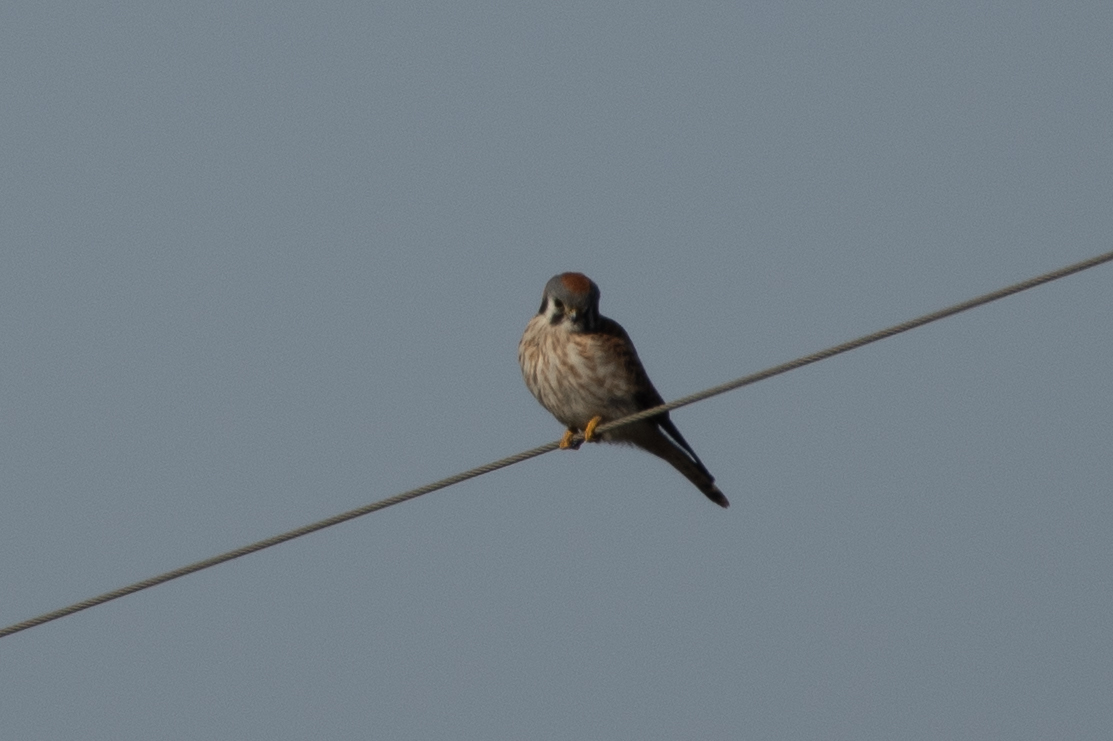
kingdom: Animalia
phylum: Chordata
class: Aves
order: Falconiformes
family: Falconidae
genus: Falco
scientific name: Falco sparverius
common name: American kestrel
